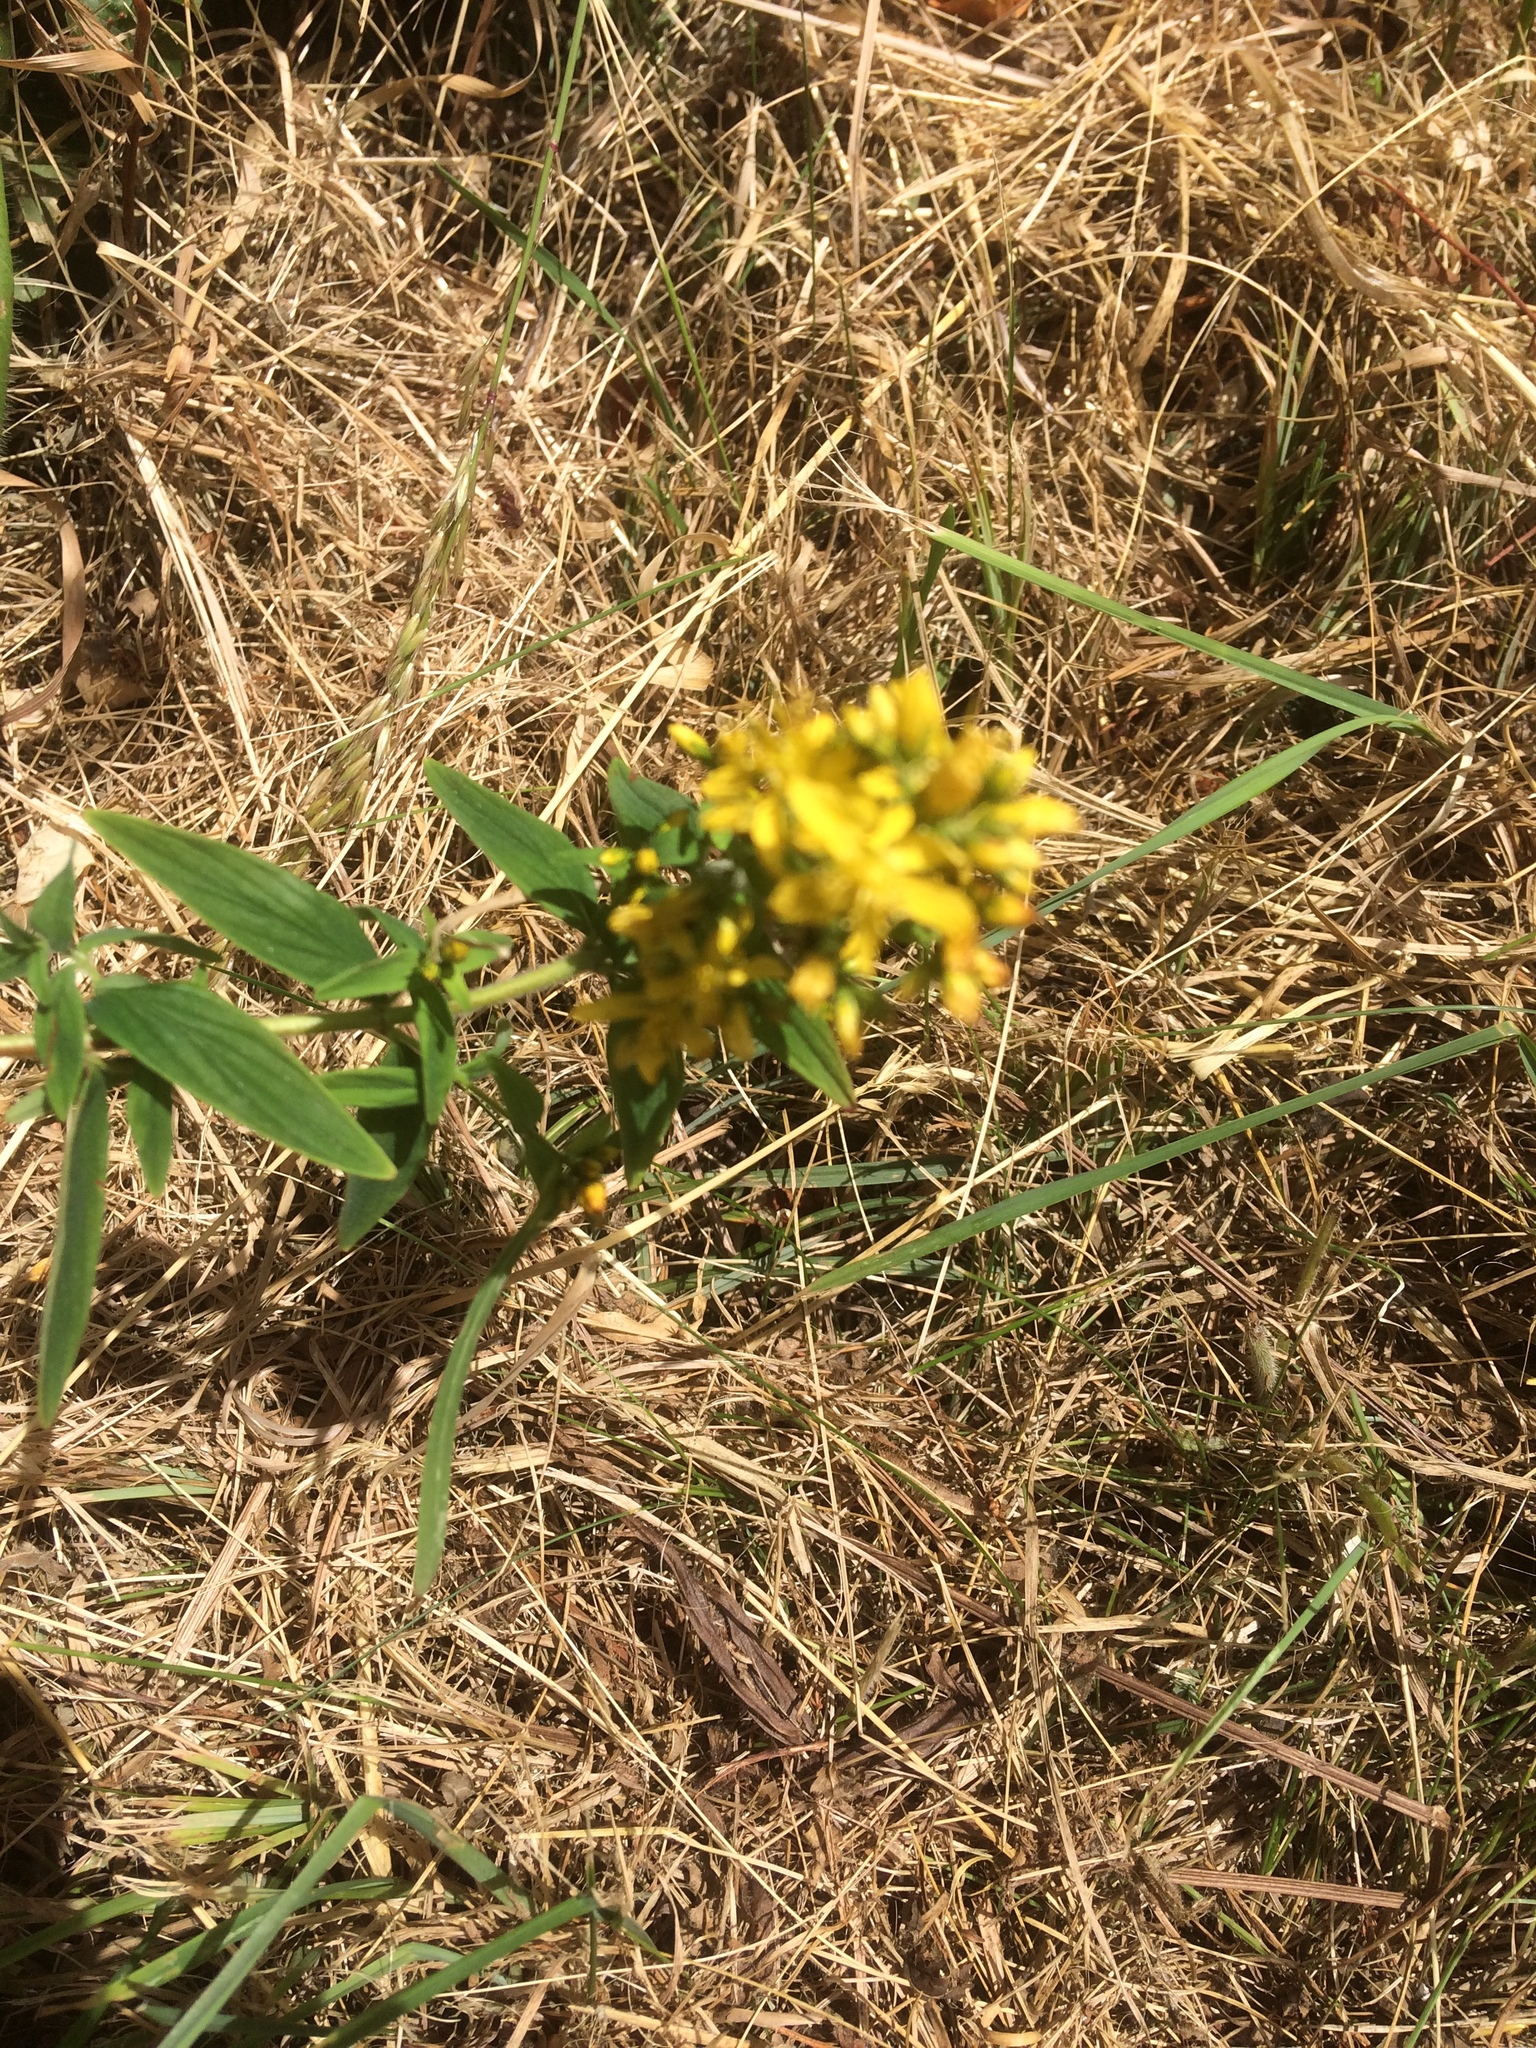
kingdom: Plantae
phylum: Tracheophyta
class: Magnoliopsida
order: Malpighiales
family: Hypericaceae
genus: Hypericum
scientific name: Hypericum hirsutum
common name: Hairy st. john's-wort
